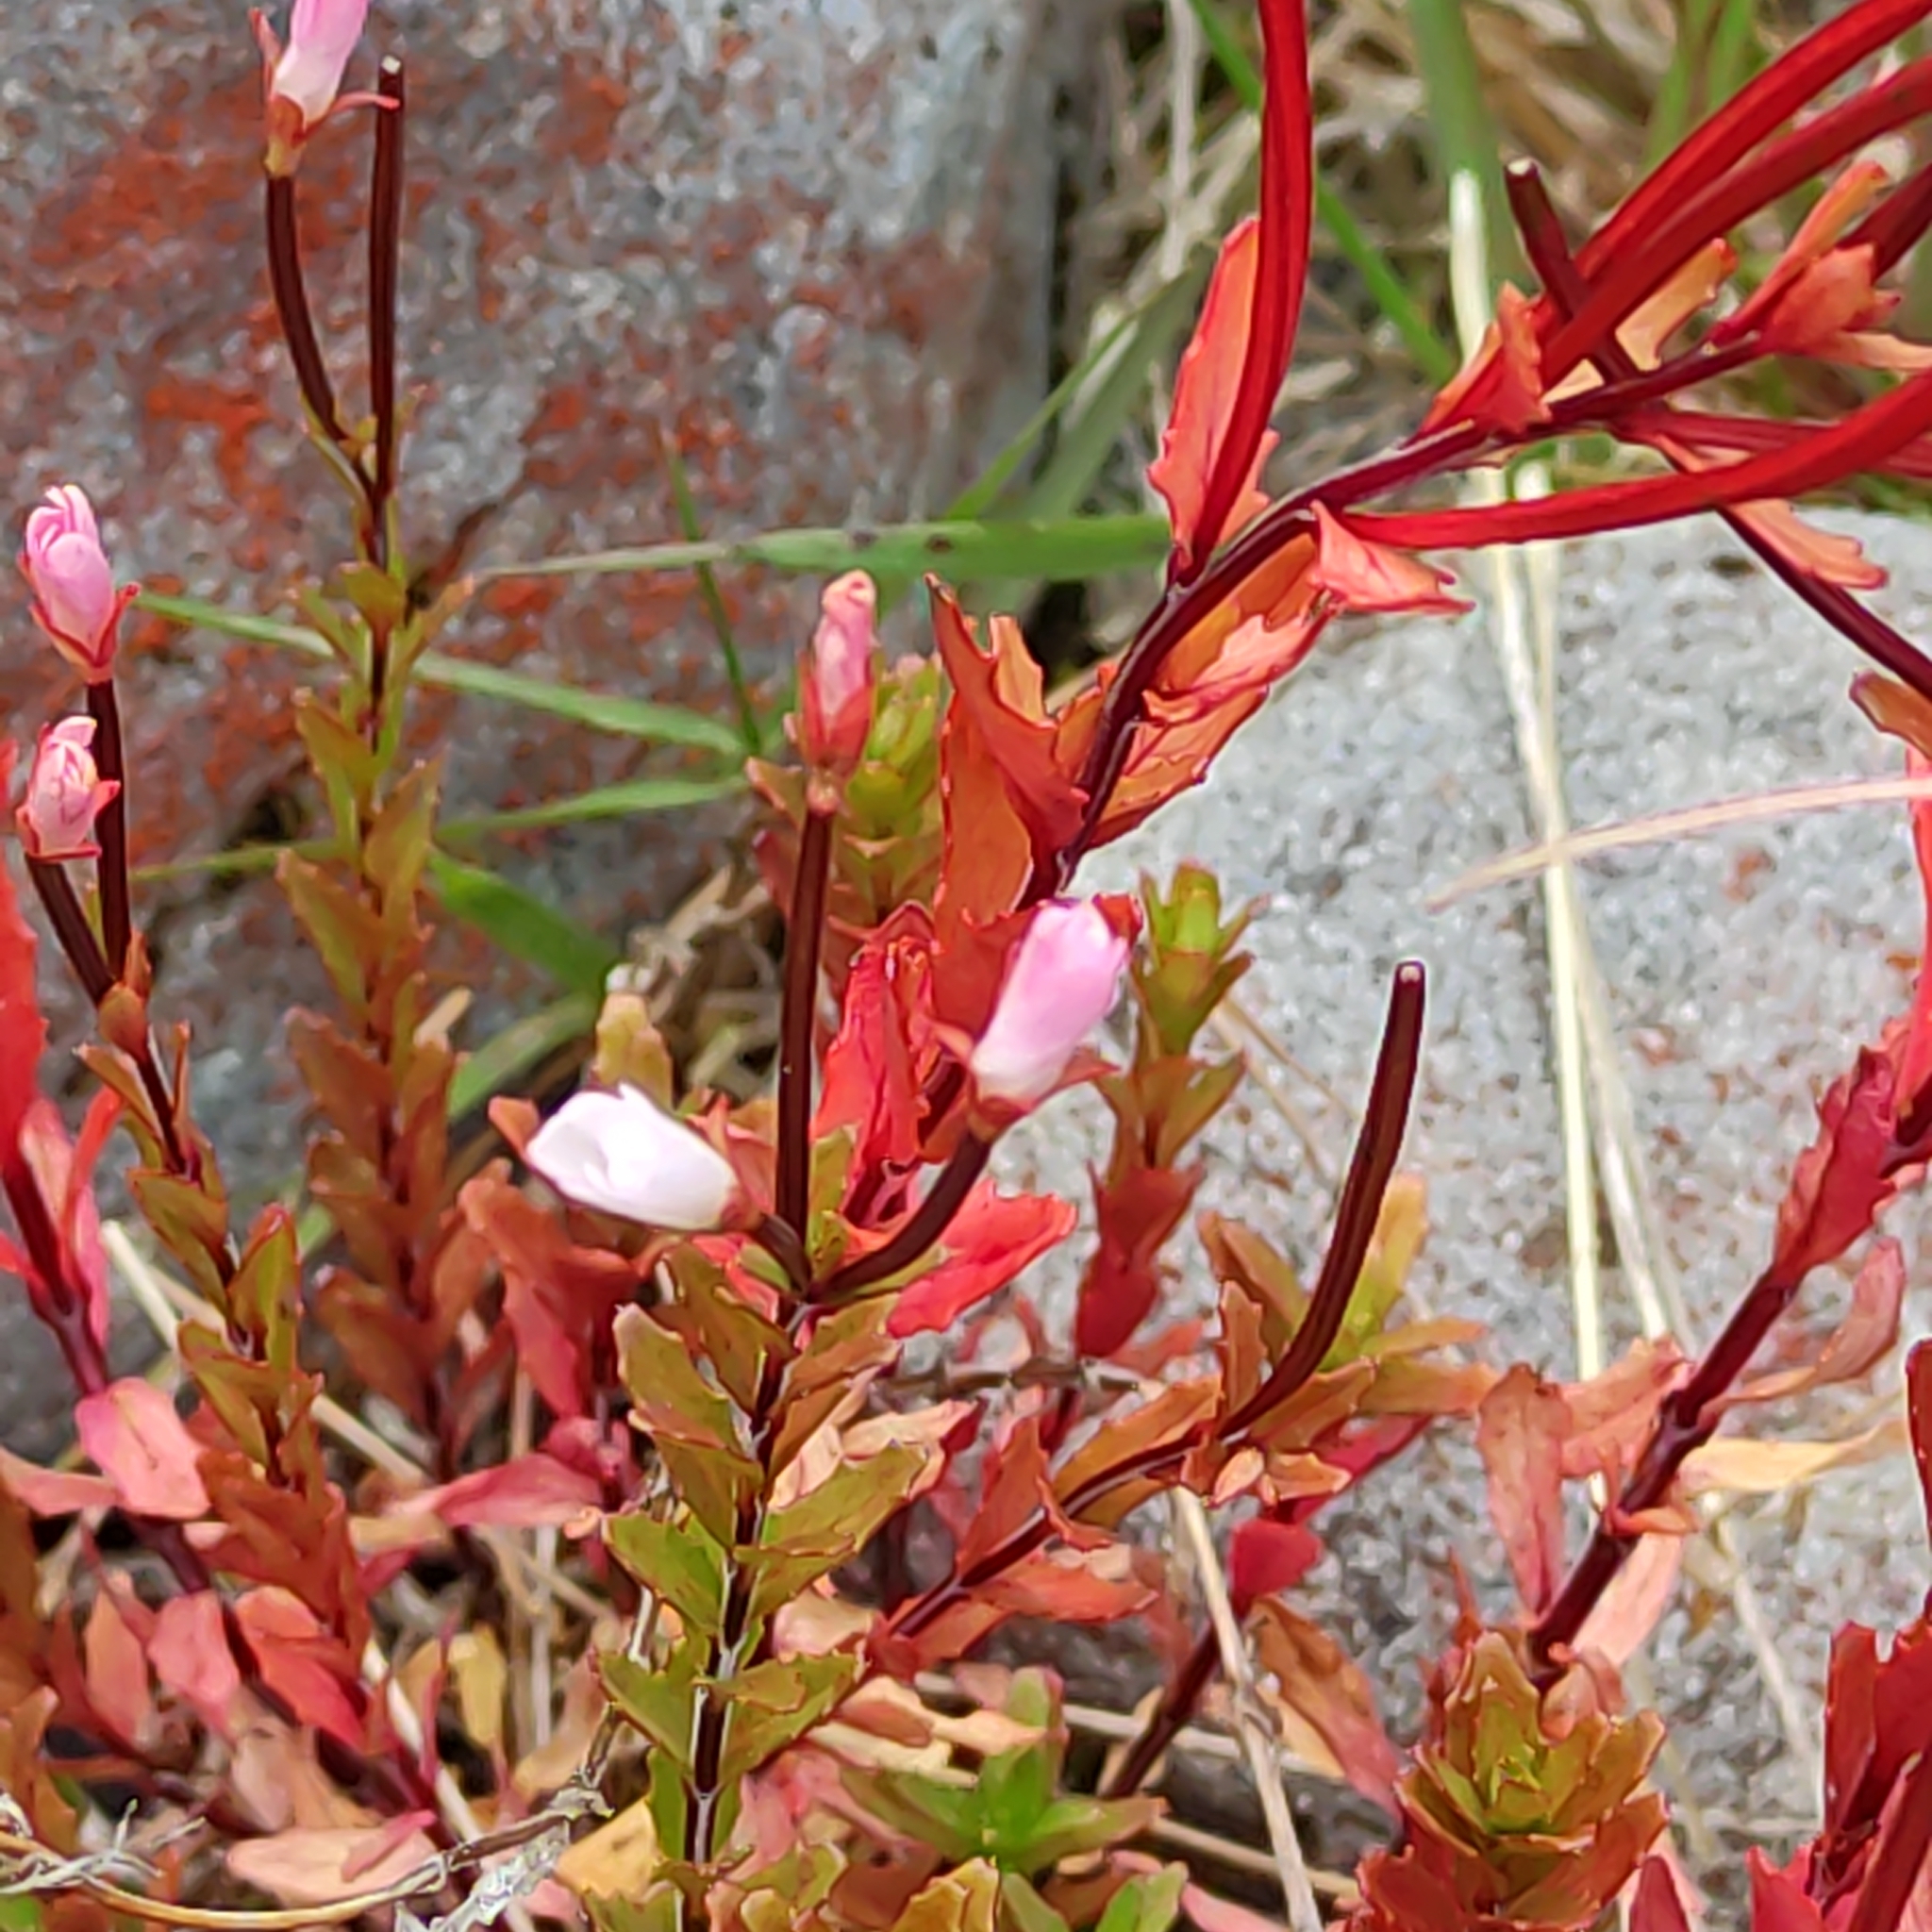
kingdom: Plantae
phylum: Tracheophyta
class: Magnoliopsida
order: Myrtales
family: Onagraceae
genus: Epilobium
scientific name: Epilobium glabellum
